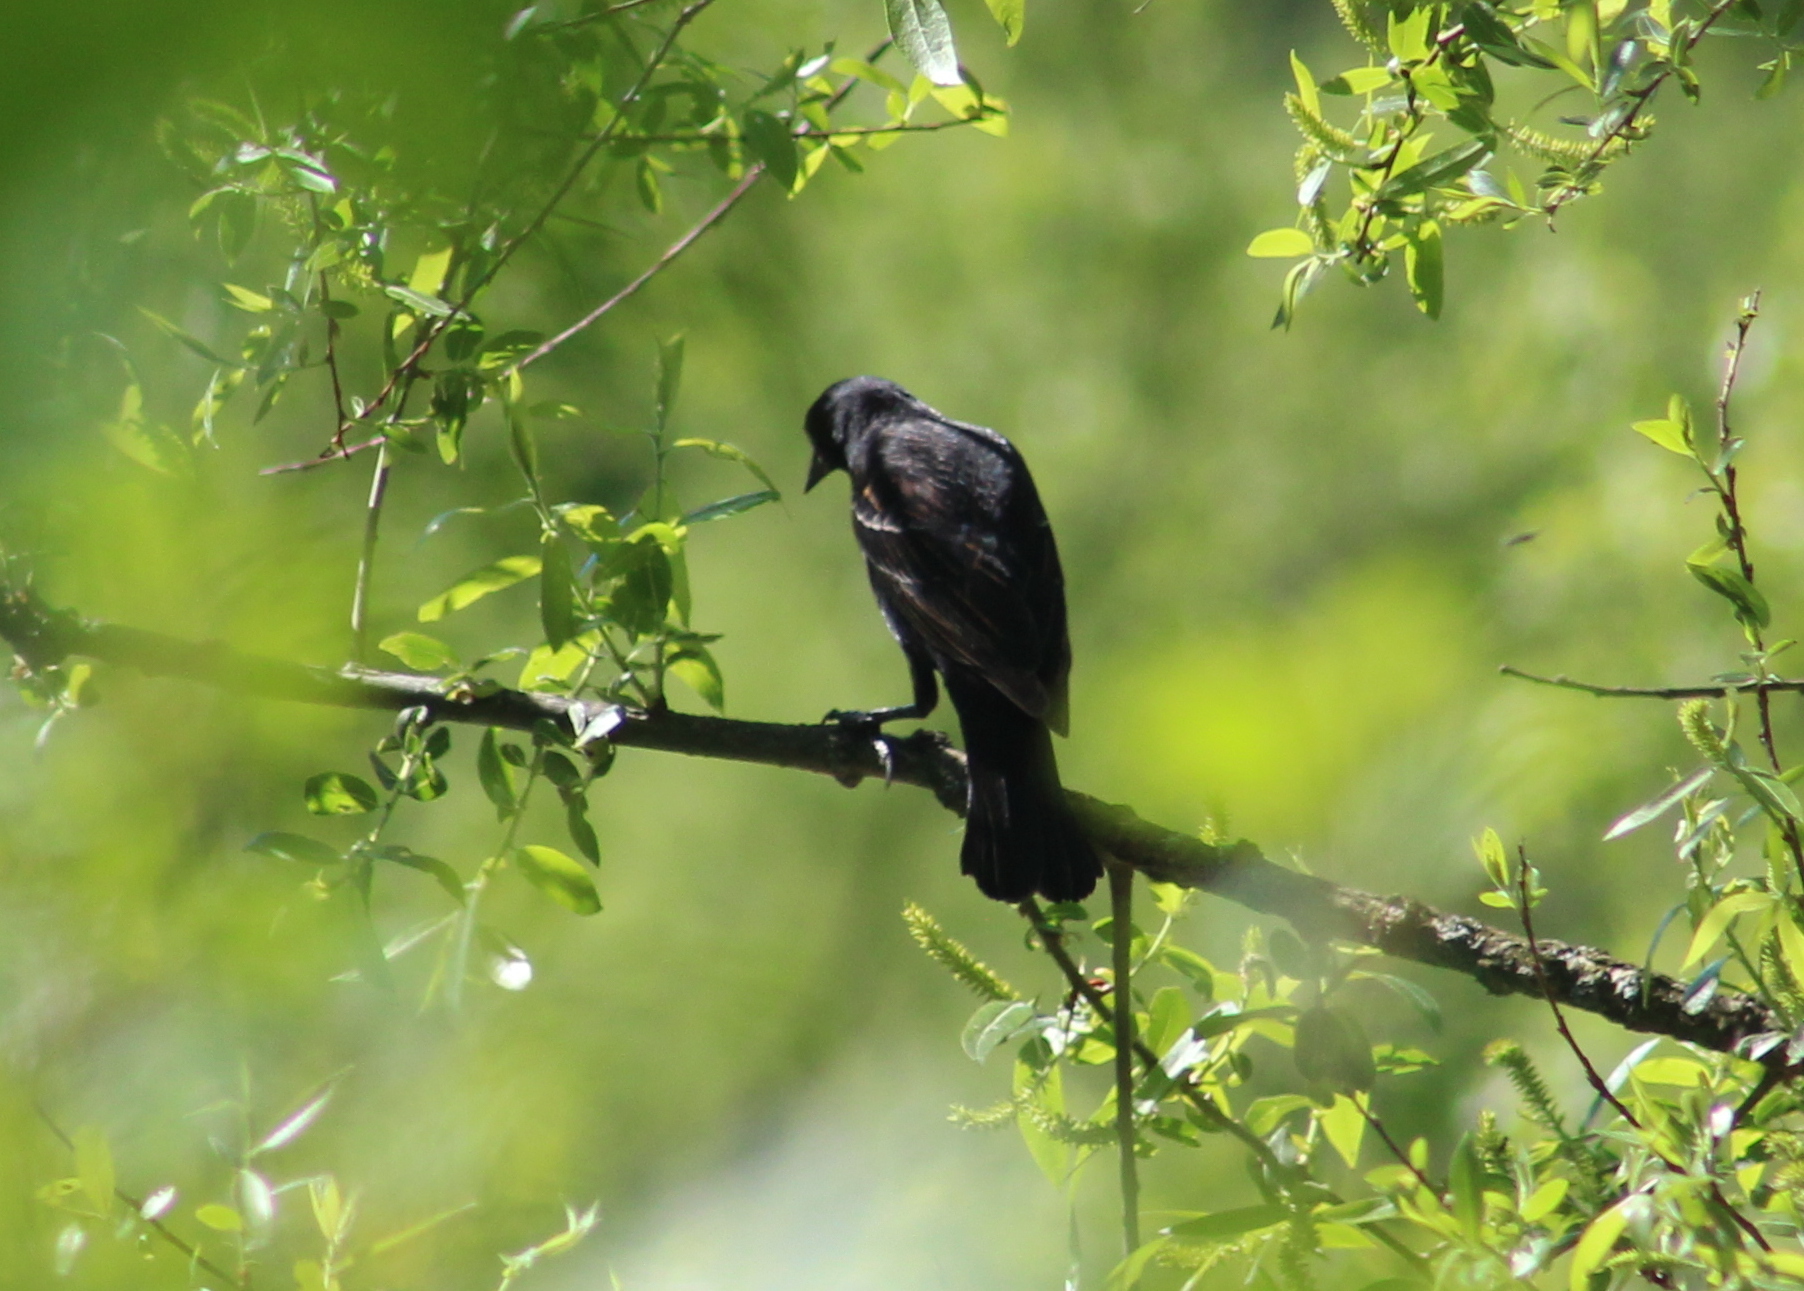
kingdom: Animalia
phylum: Chordata
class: Aves
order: Passeriformes
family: Icteridae
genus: Agelaius
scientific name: Agelaius phoeniceus
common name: Red-winged blackbird
